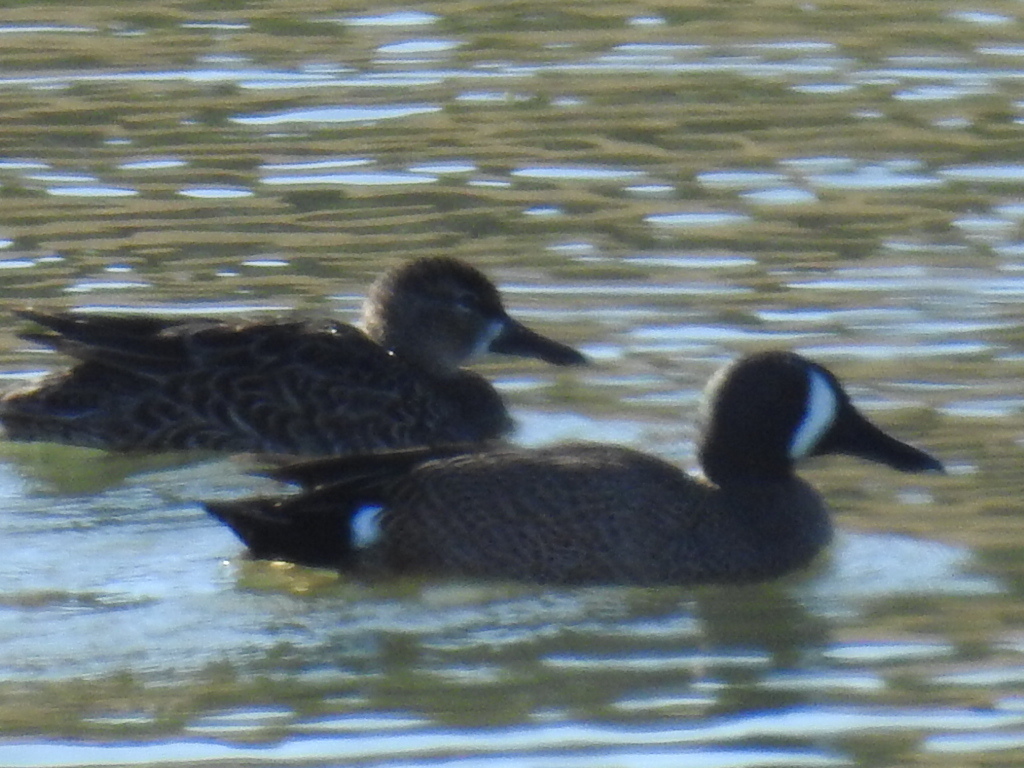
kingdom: Animalia
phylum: Chordata
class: Aves
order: Anseriformes
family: Anatidae
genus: Spatula
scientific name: Spatula discors
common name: Blue-winged teal
